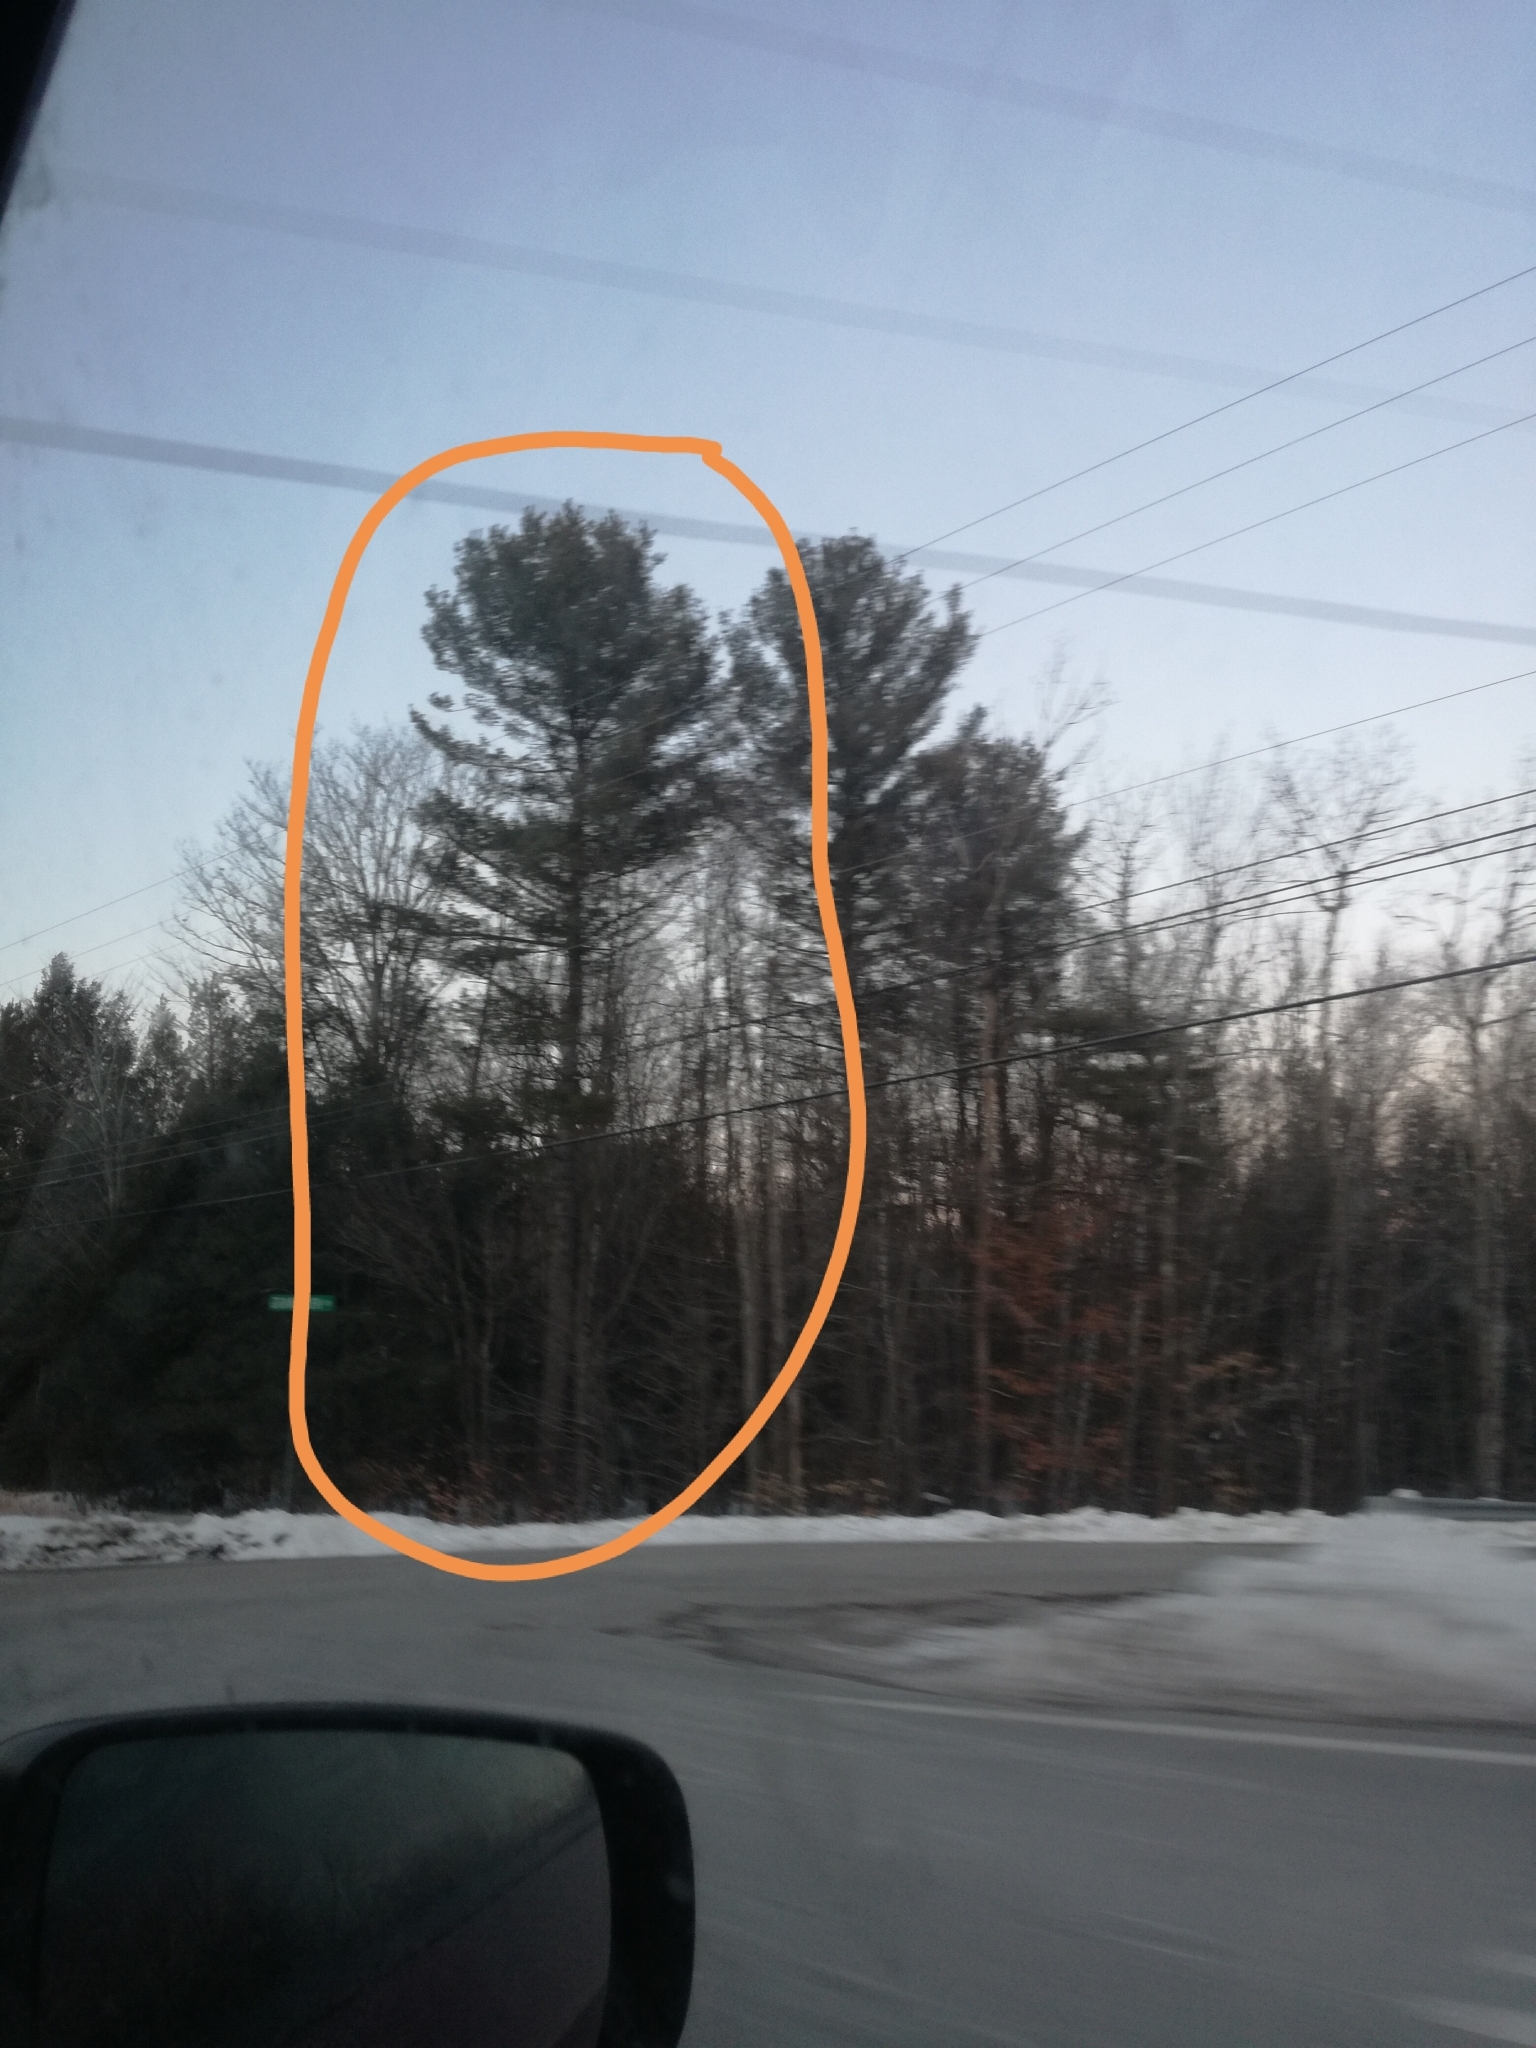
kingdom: Plantae
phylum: Tracheophyta
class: Pinopsida
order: Pinales
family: Pinaceae
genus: Pinus
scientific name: Pinus strobus
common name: Weymouth pine
